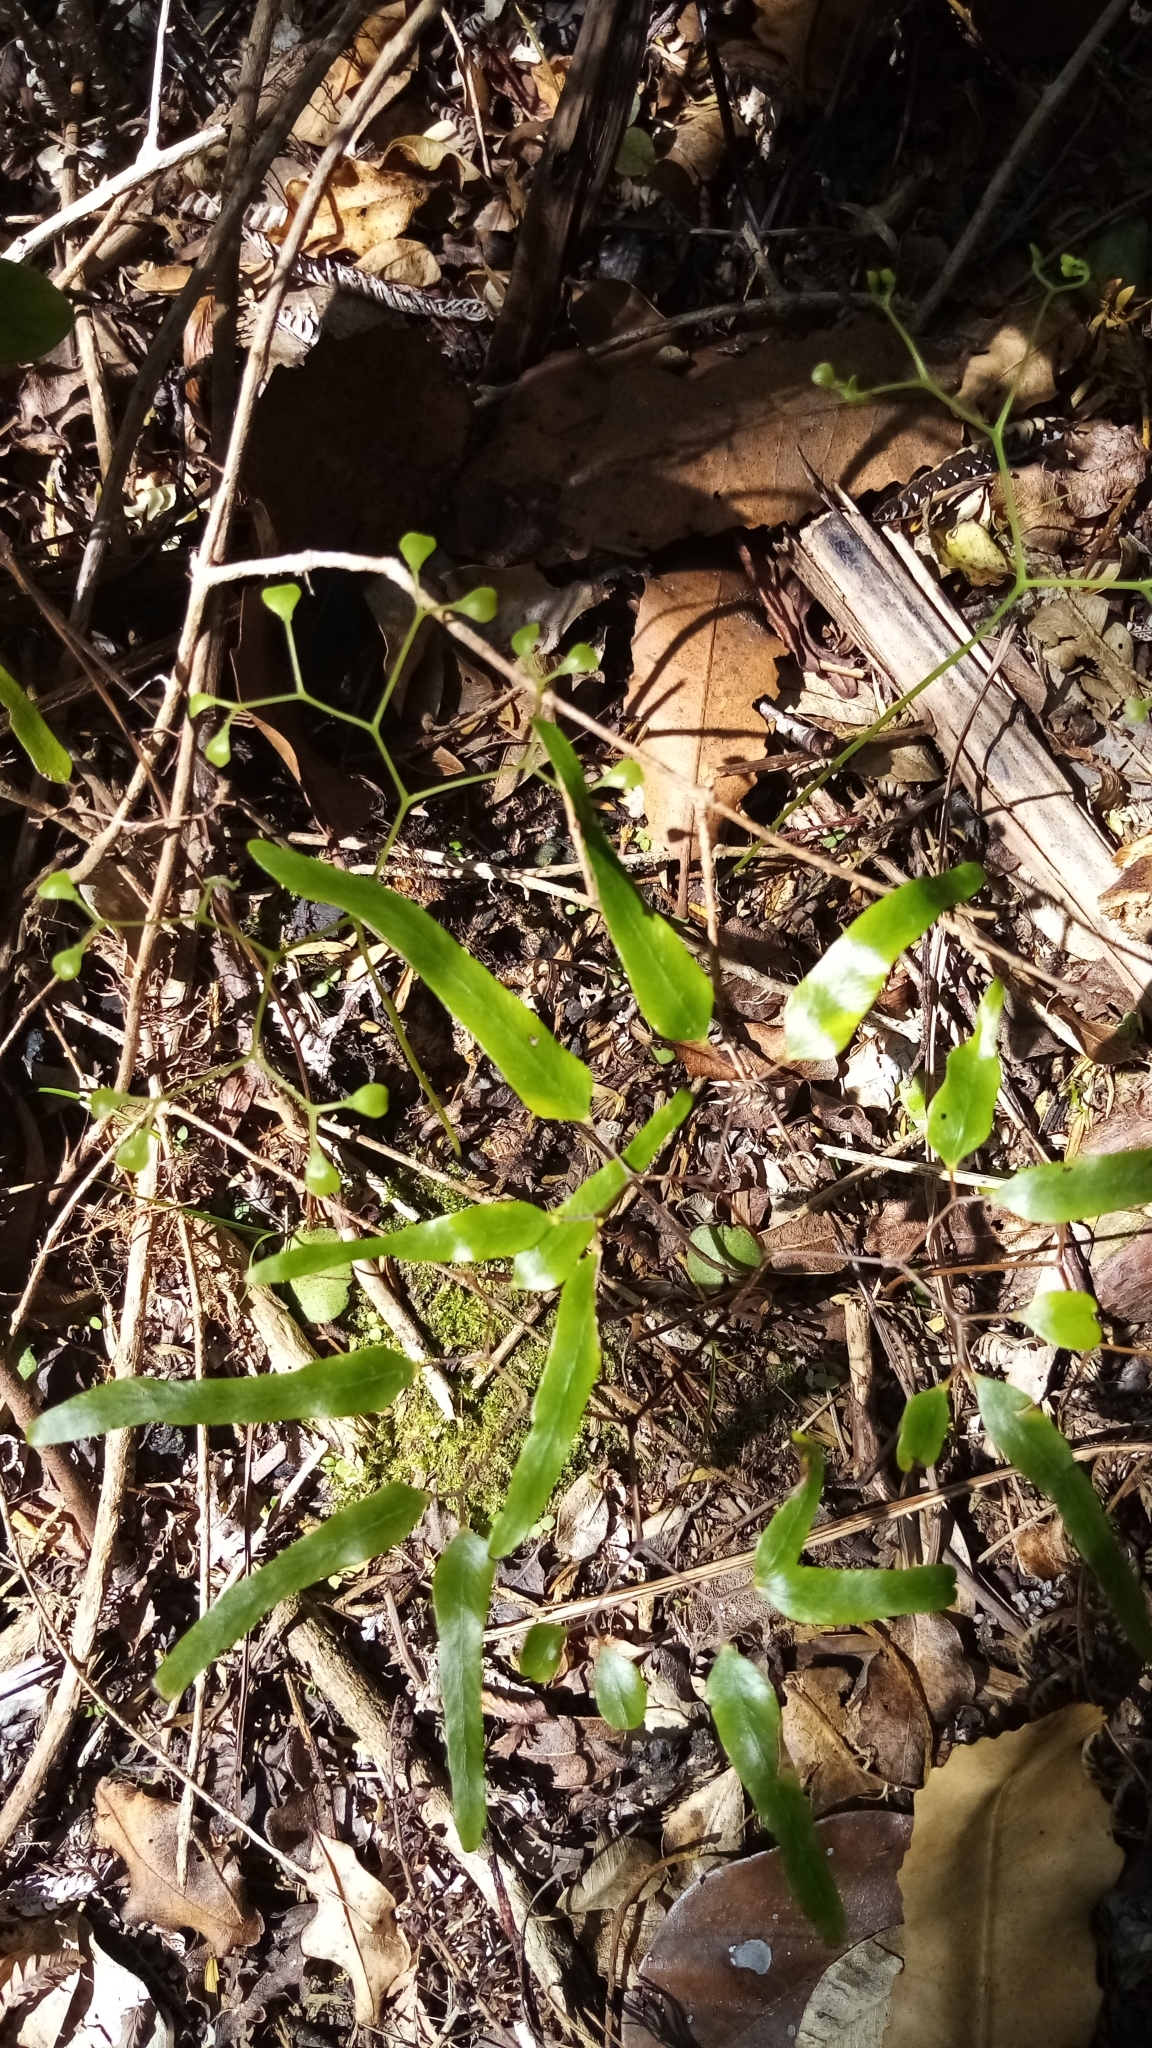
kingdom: Plantae
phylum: Tracheophyta
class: Polypodiopsida
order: Schizaeales
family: Lygodiaceae
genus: Lygodium
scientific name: Lygodium articulatum
